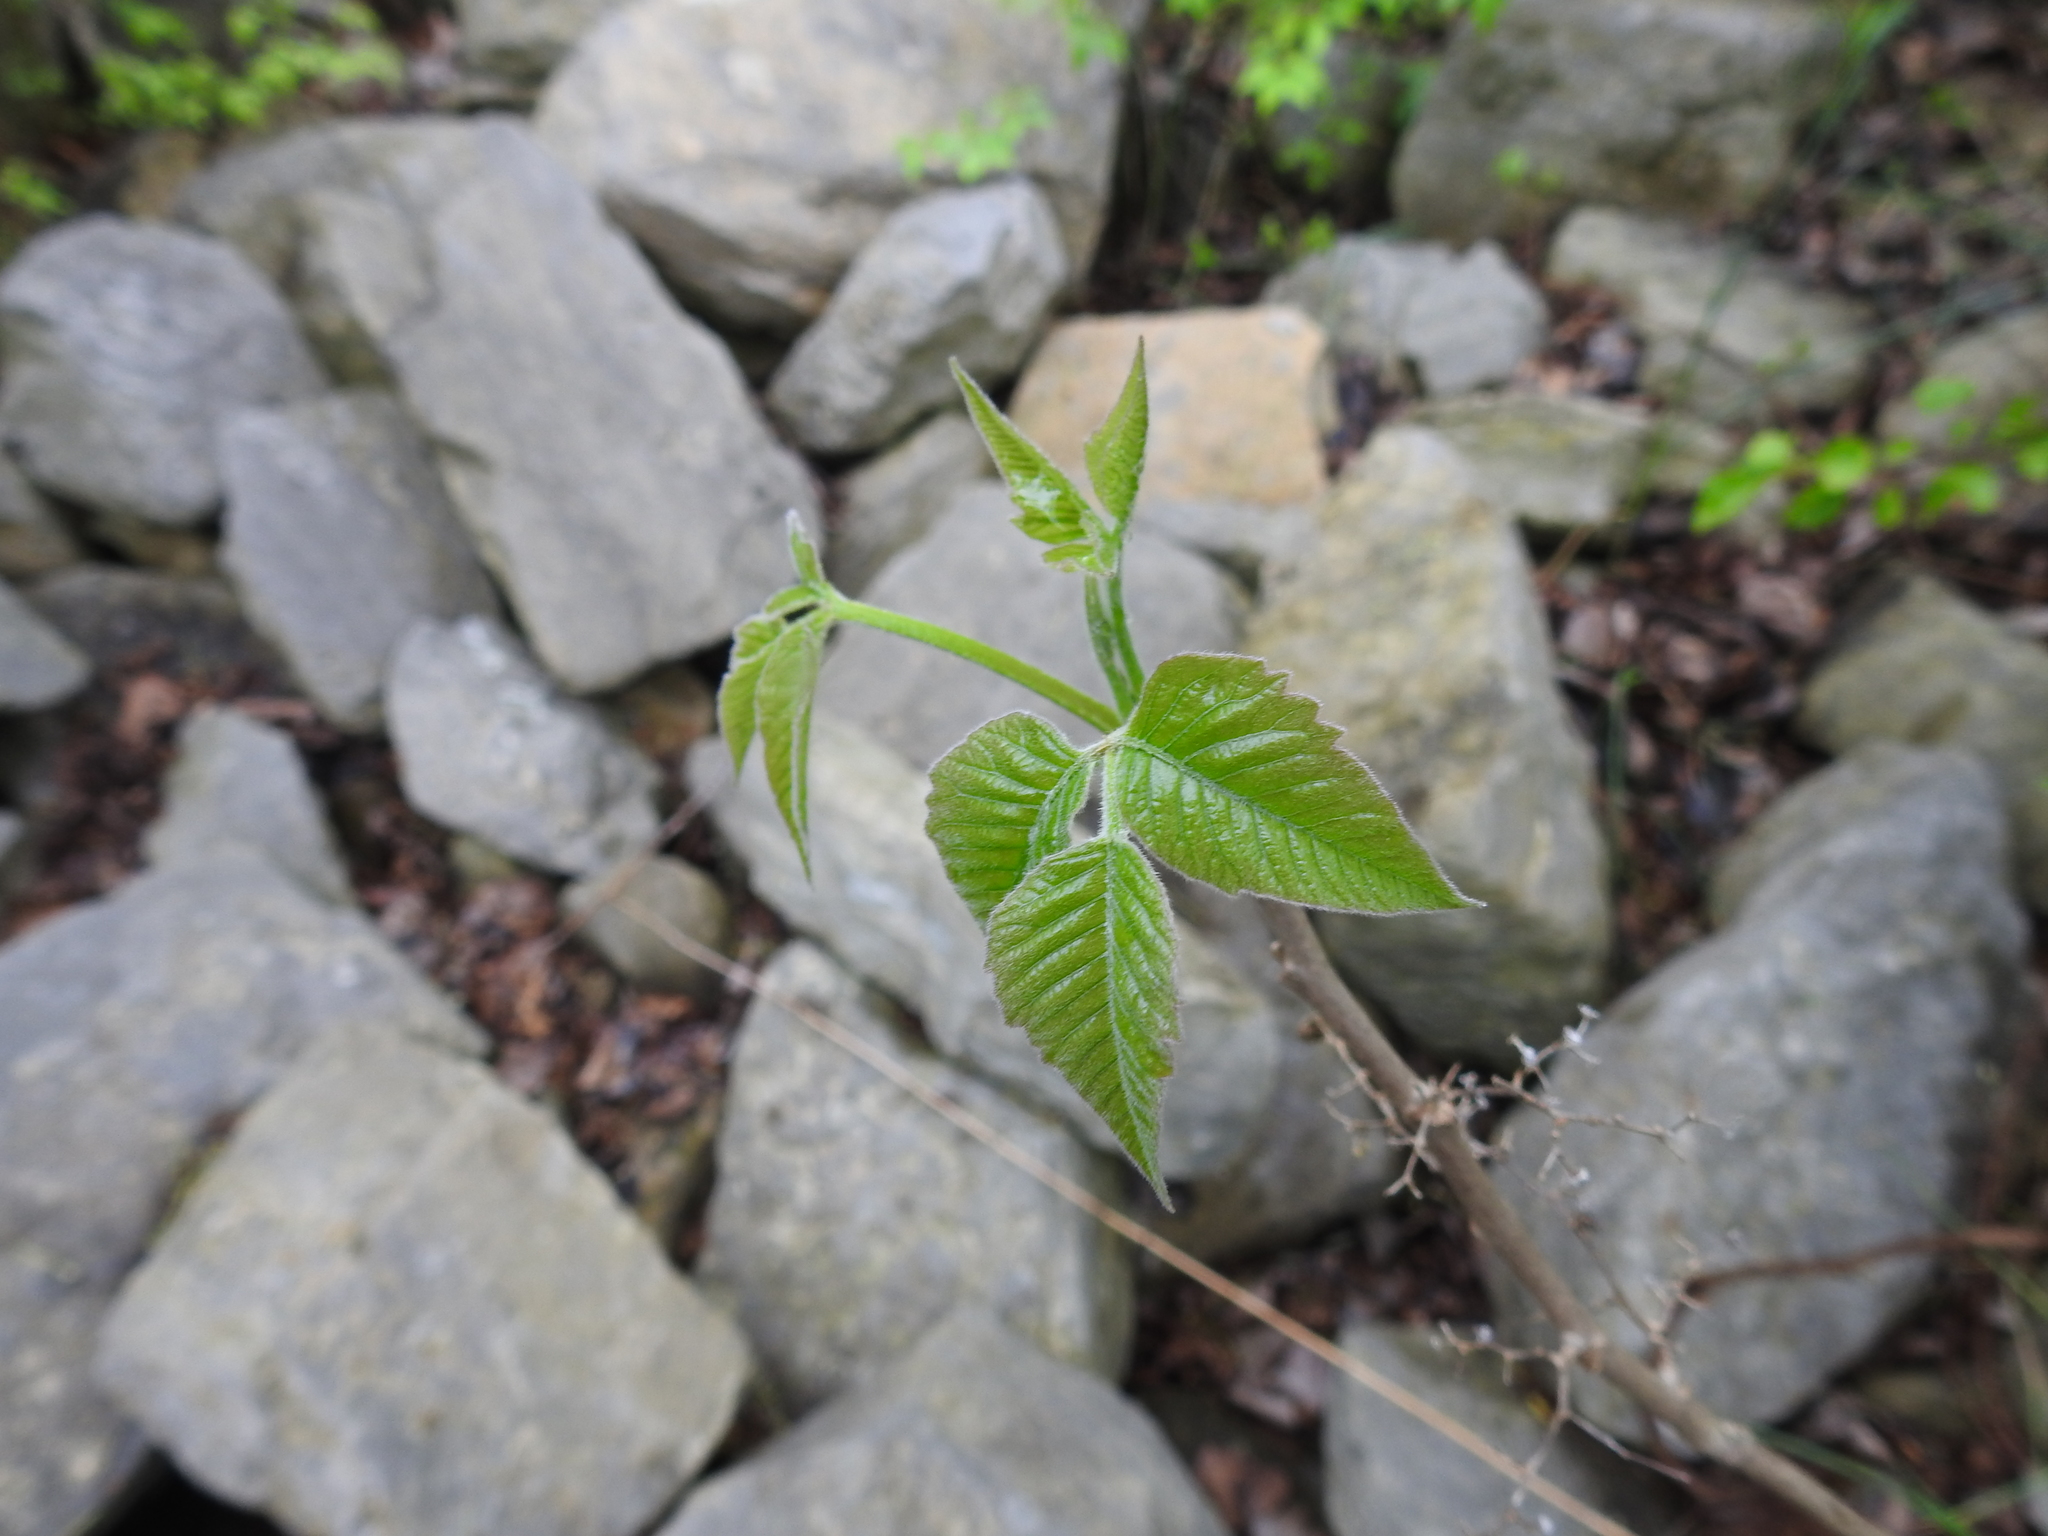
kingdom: Plantae
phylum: Tracheophyta
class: Magnoliopsida
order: Sapindales
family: Anacardiaceae
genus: Toxicodendron
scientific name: Toxicodendron radicans
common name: Poison ivy
